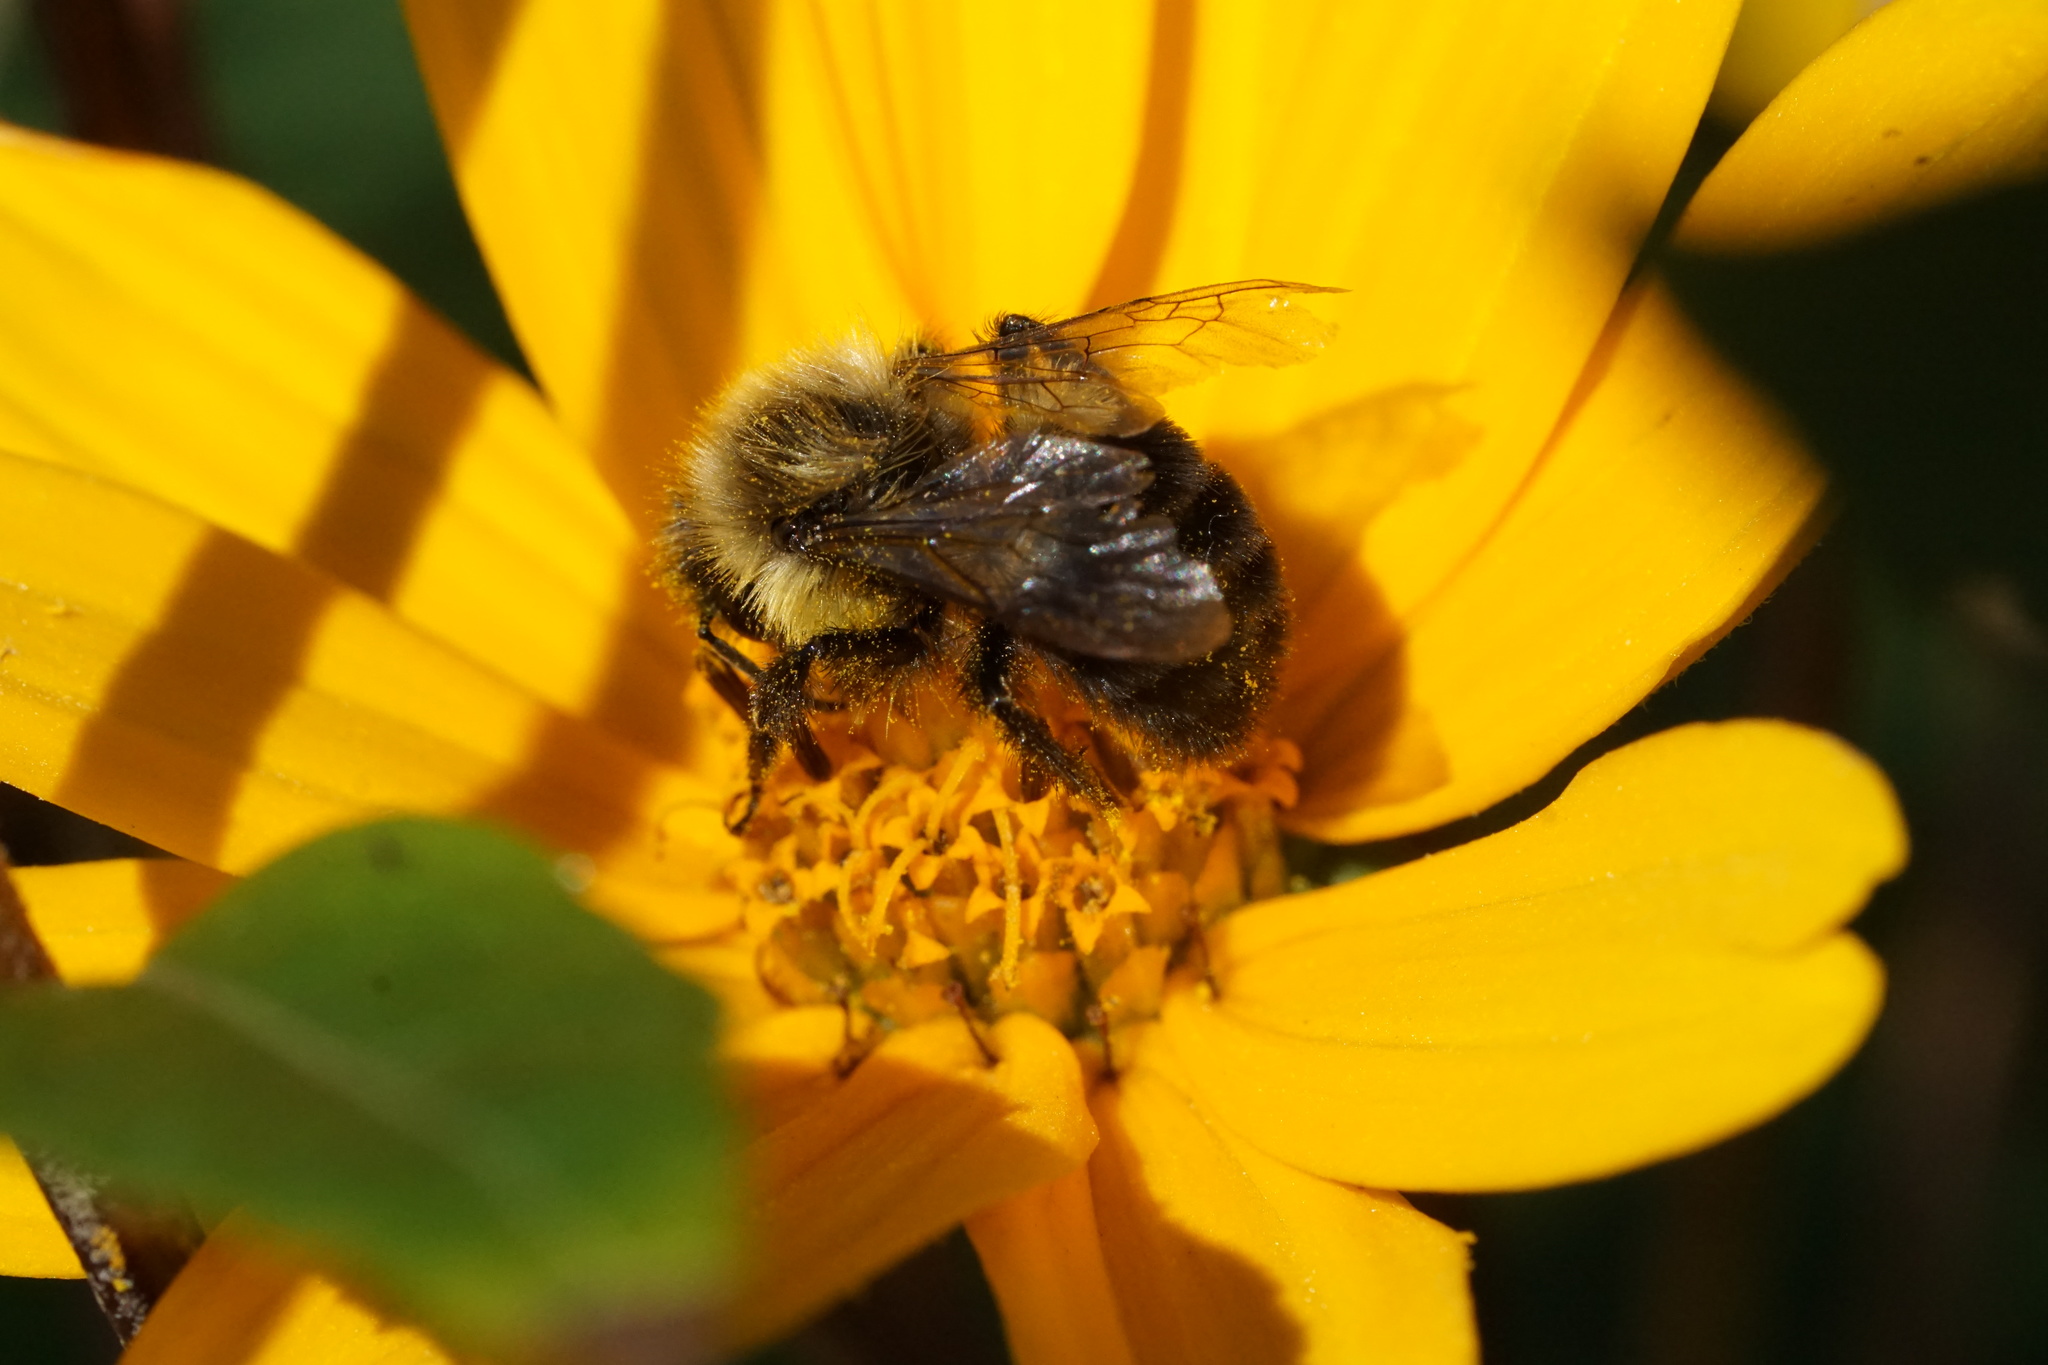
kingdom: Animalia
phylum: Arthropoda
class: Insecta
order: Hymenoptera
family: Apidae
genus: Bombus
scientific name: Bombus impatiens
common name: Common eastern bumble bee
